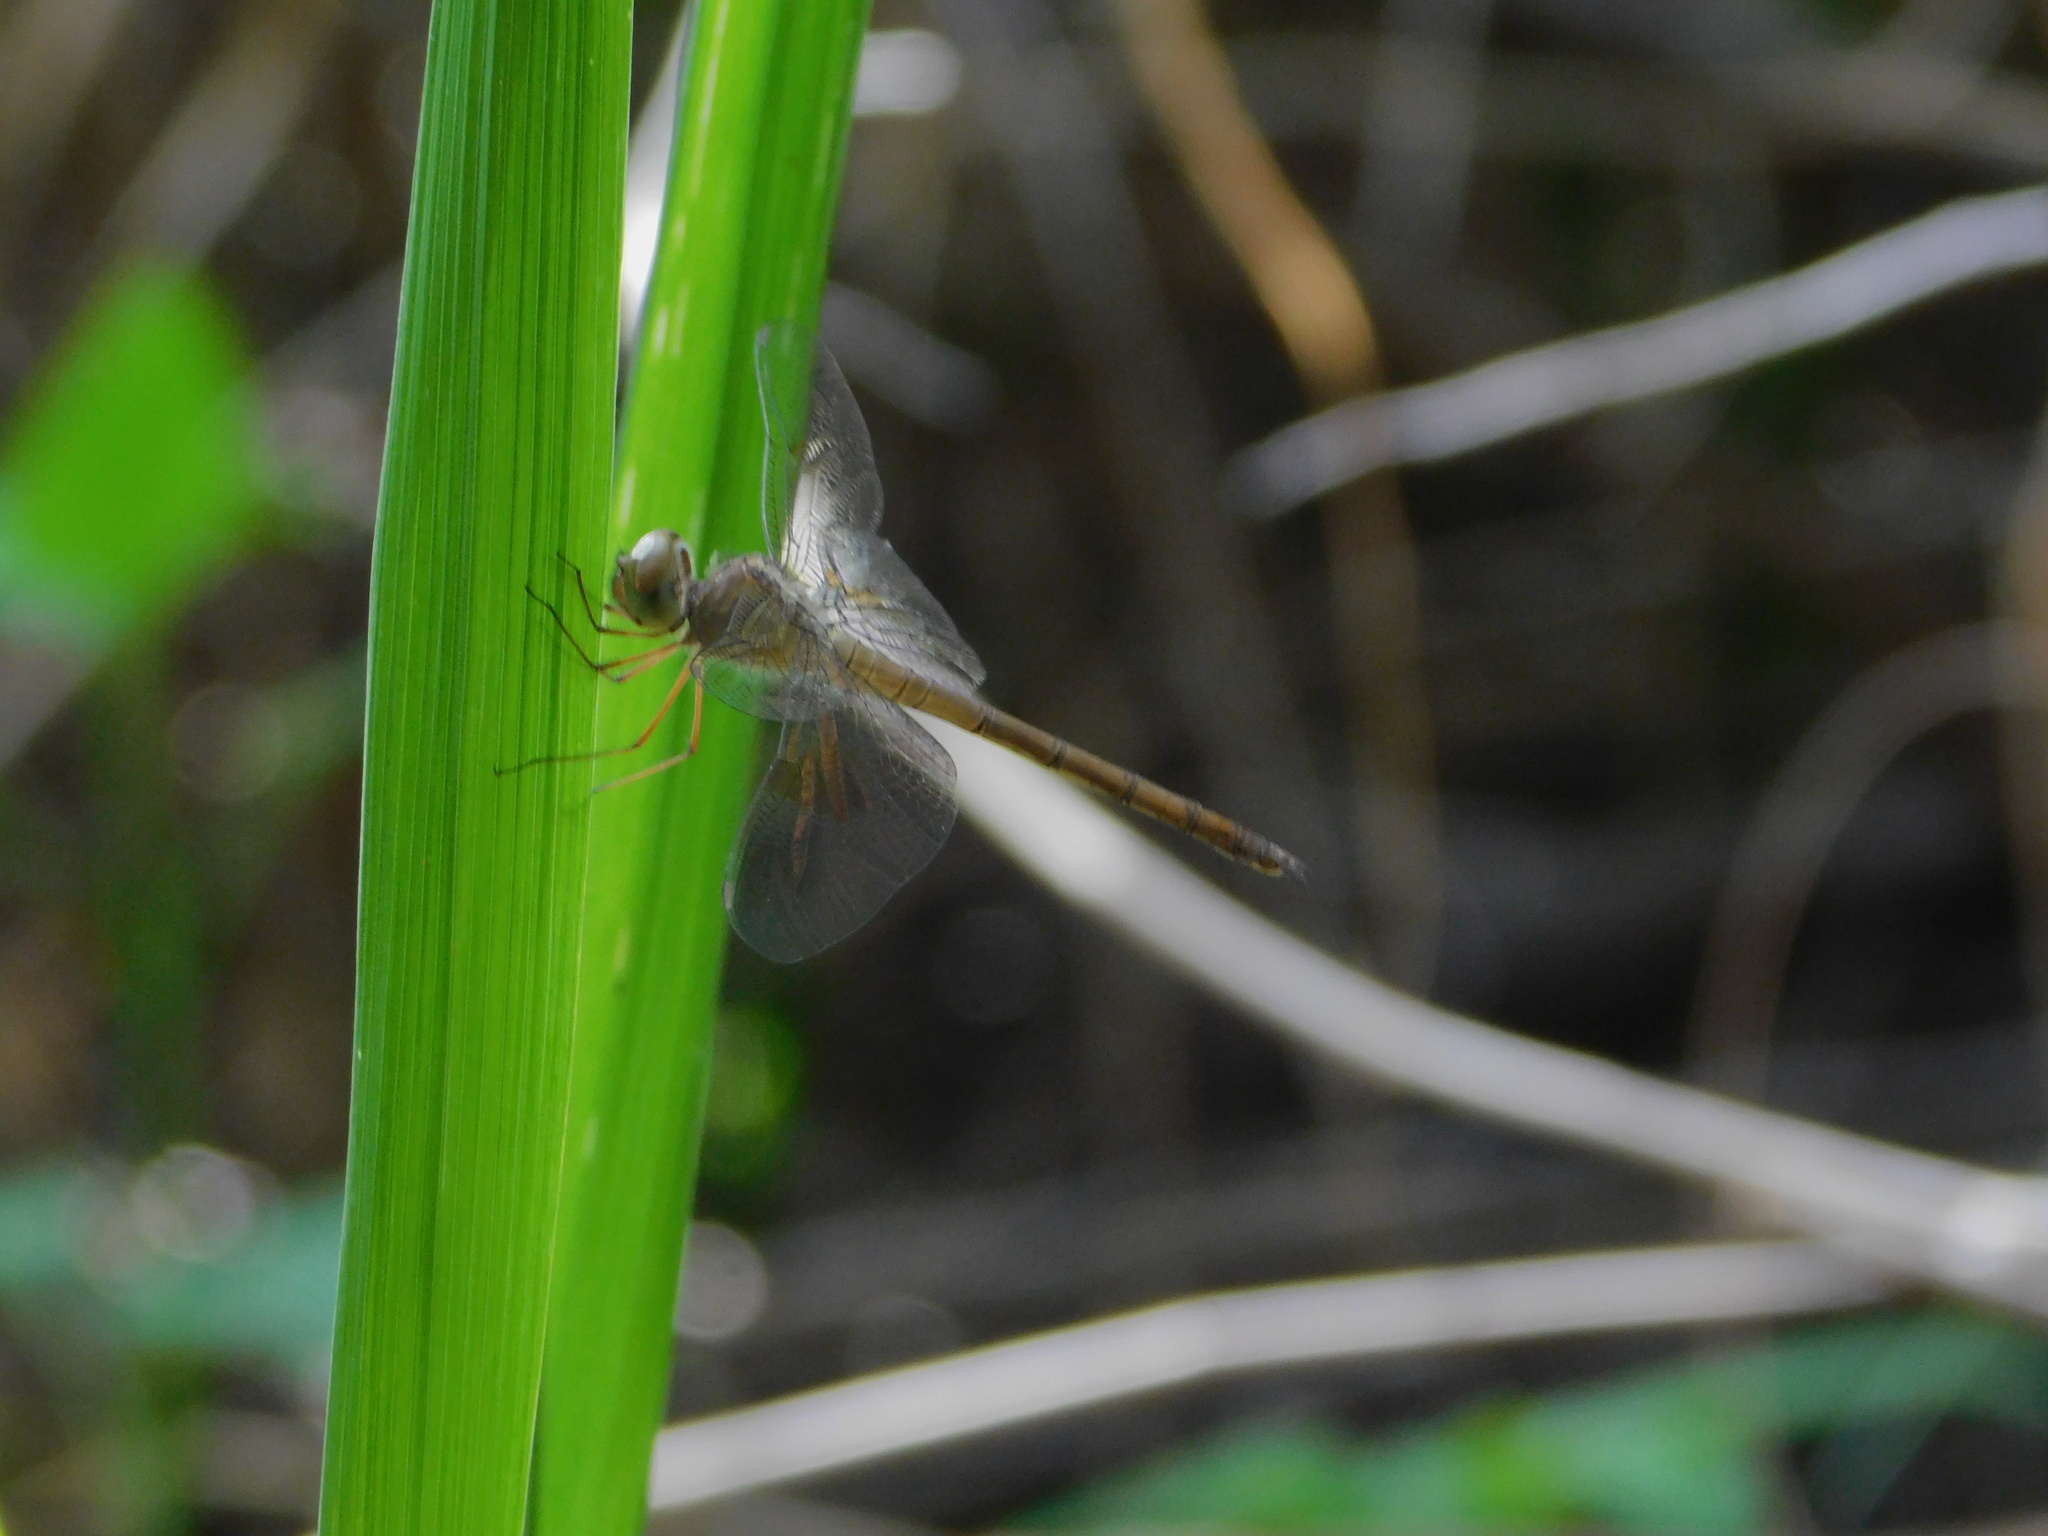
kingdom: Animalia
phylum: Arthropoda
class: Insecta
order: Odonata
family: Libellulidae
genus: Tholymis
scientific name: Tholymis citrina
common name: Evening skimmer
